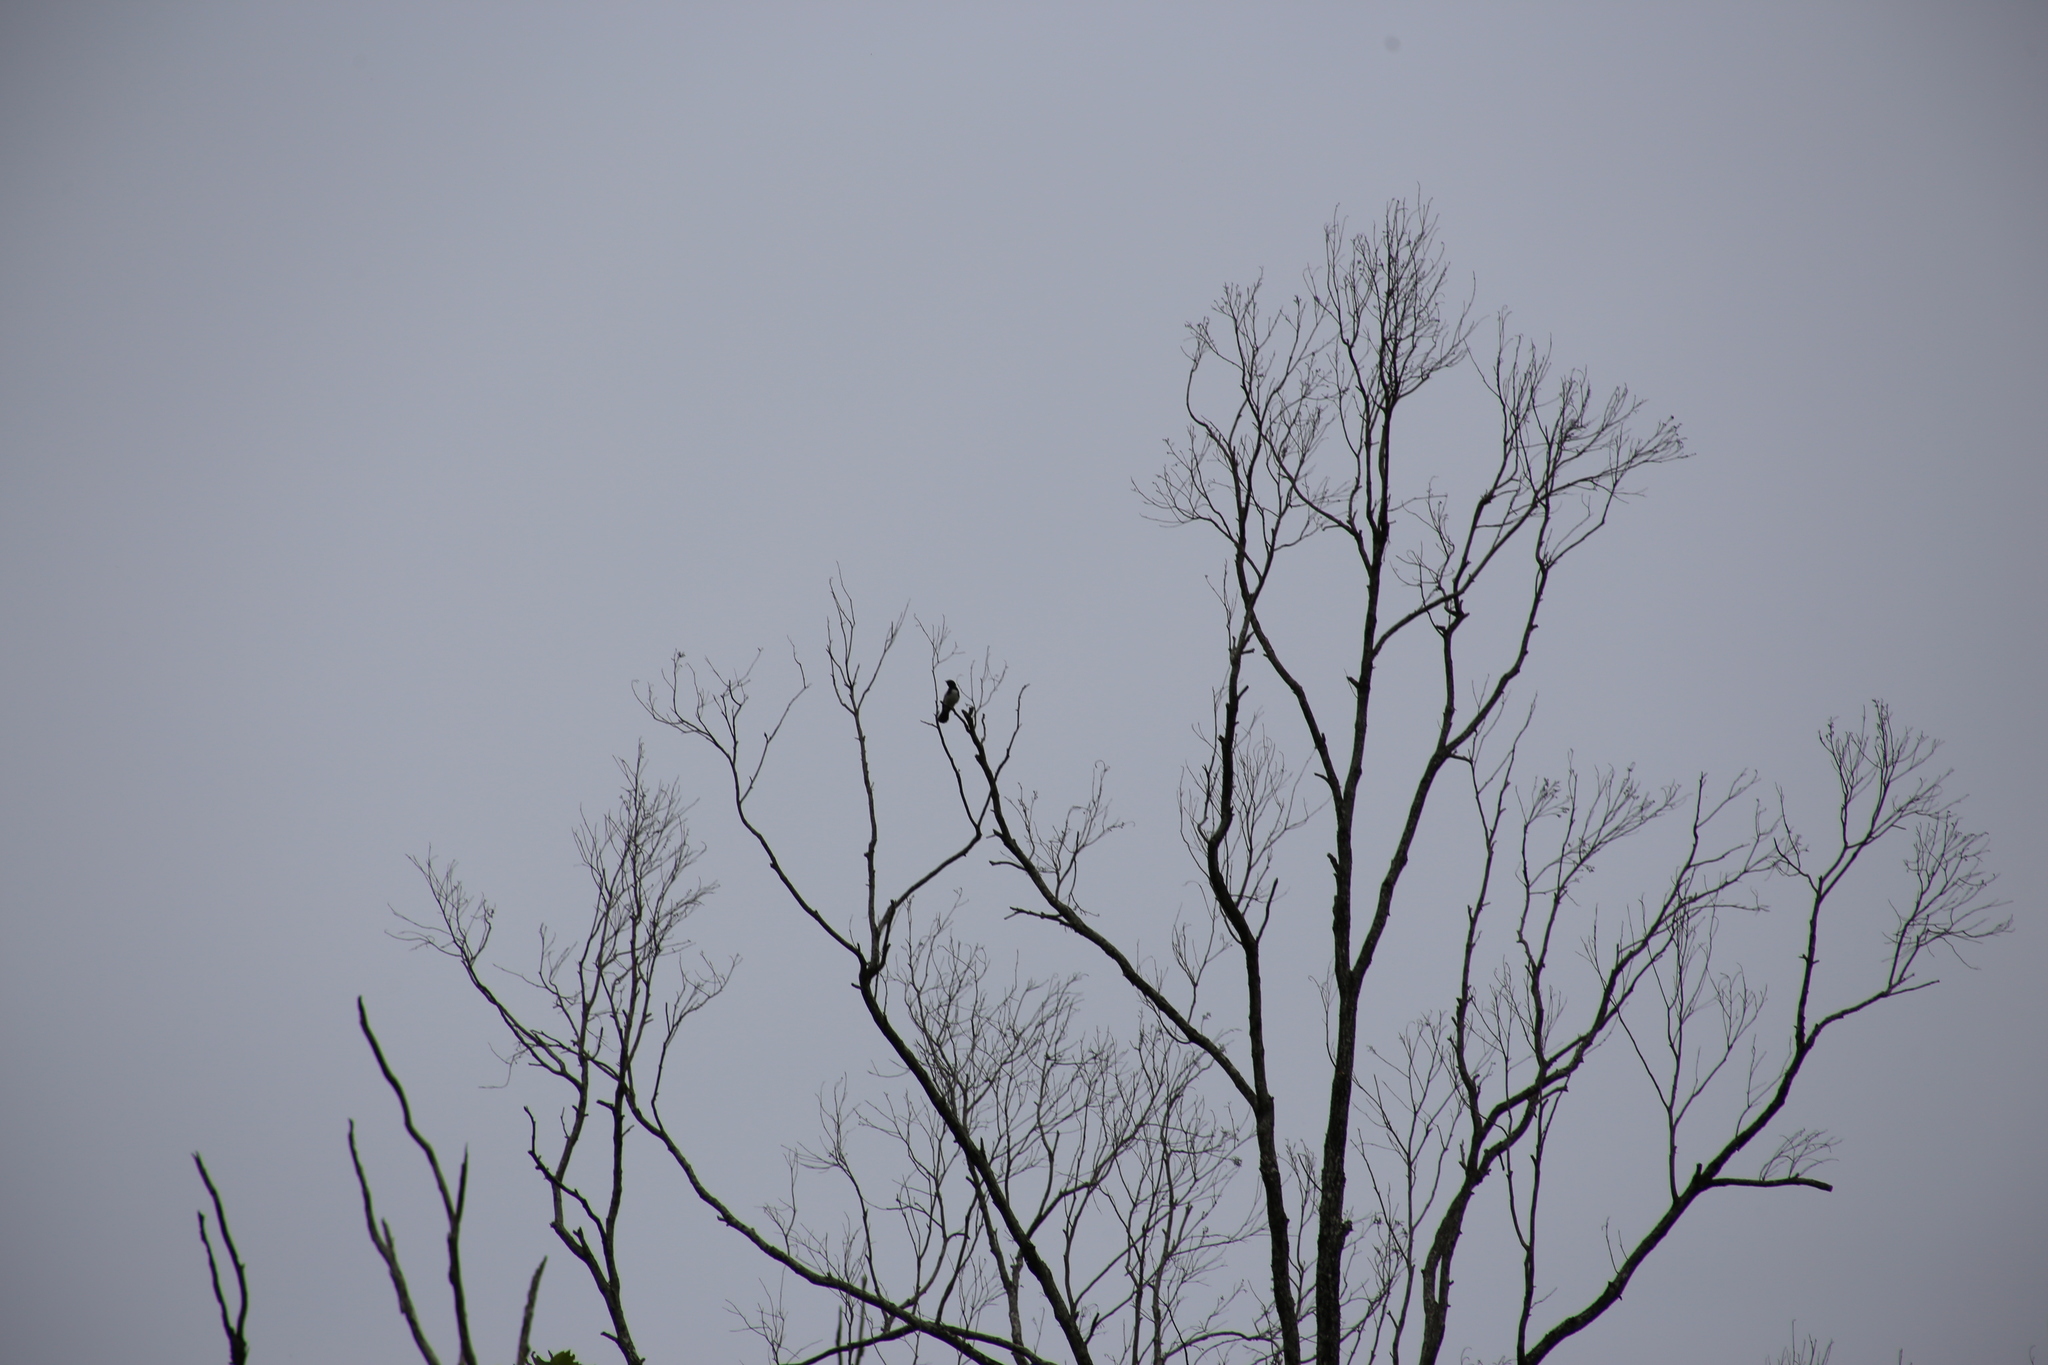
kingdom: Animalia
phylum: Chordata
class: Aves
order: Passeriformes
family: Rhipiduridae
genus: Rhipidura
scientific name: Rhipidura leucophrys
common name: Willie wagtail
